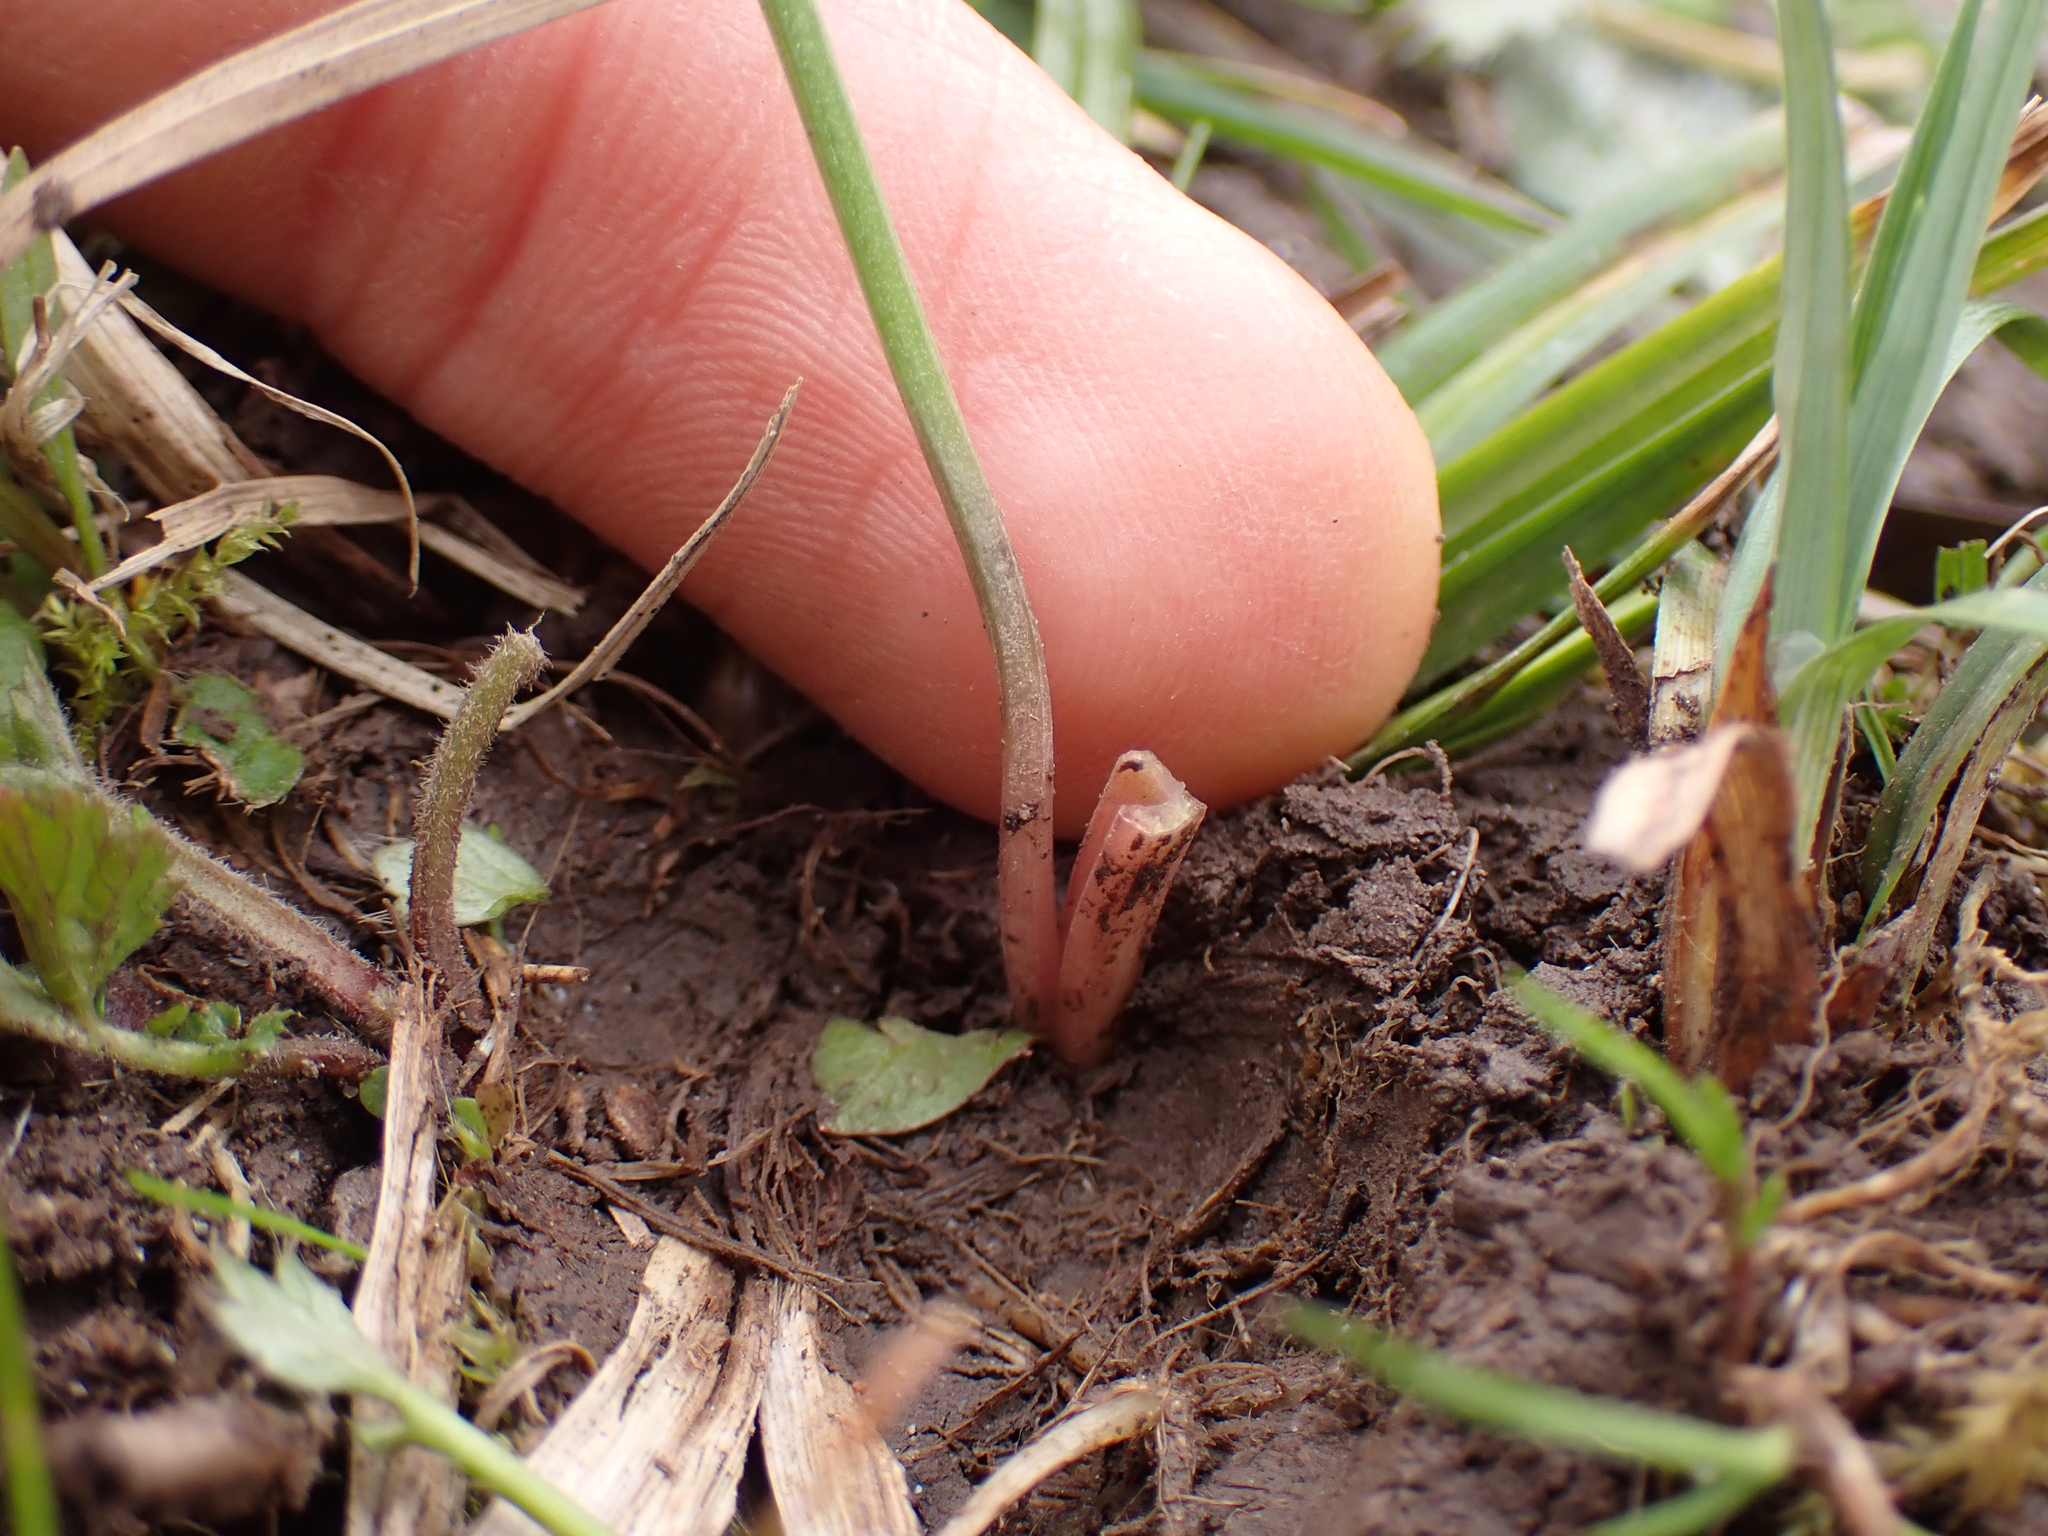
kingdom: Plantae
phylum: Tracheophyta
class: Liliopsida
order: Liliales
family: Liliaceae
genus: Gagea
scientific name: Gagea lutea
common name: Yellow star-of-bethlehem
